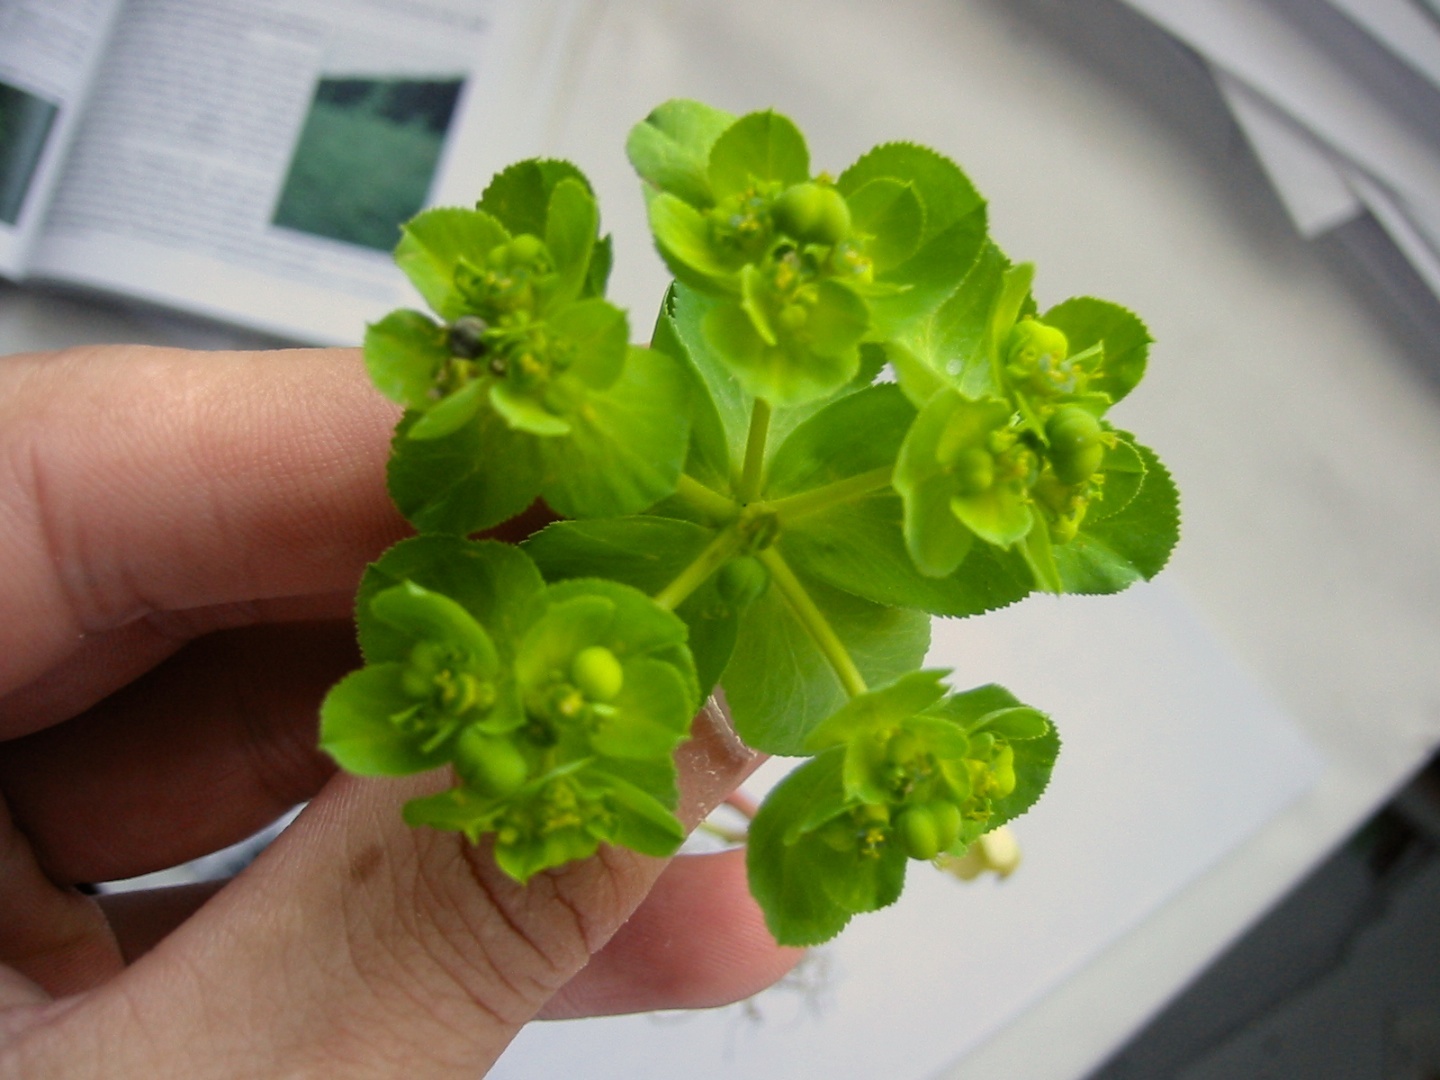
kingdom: Plantae
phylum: Tracheophyta
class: Magnoliopsida
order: Malpighiales
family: Euphorbiaceae
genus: Euphorbia
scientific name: Euphorbia helioscopia
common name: Sun spurge
